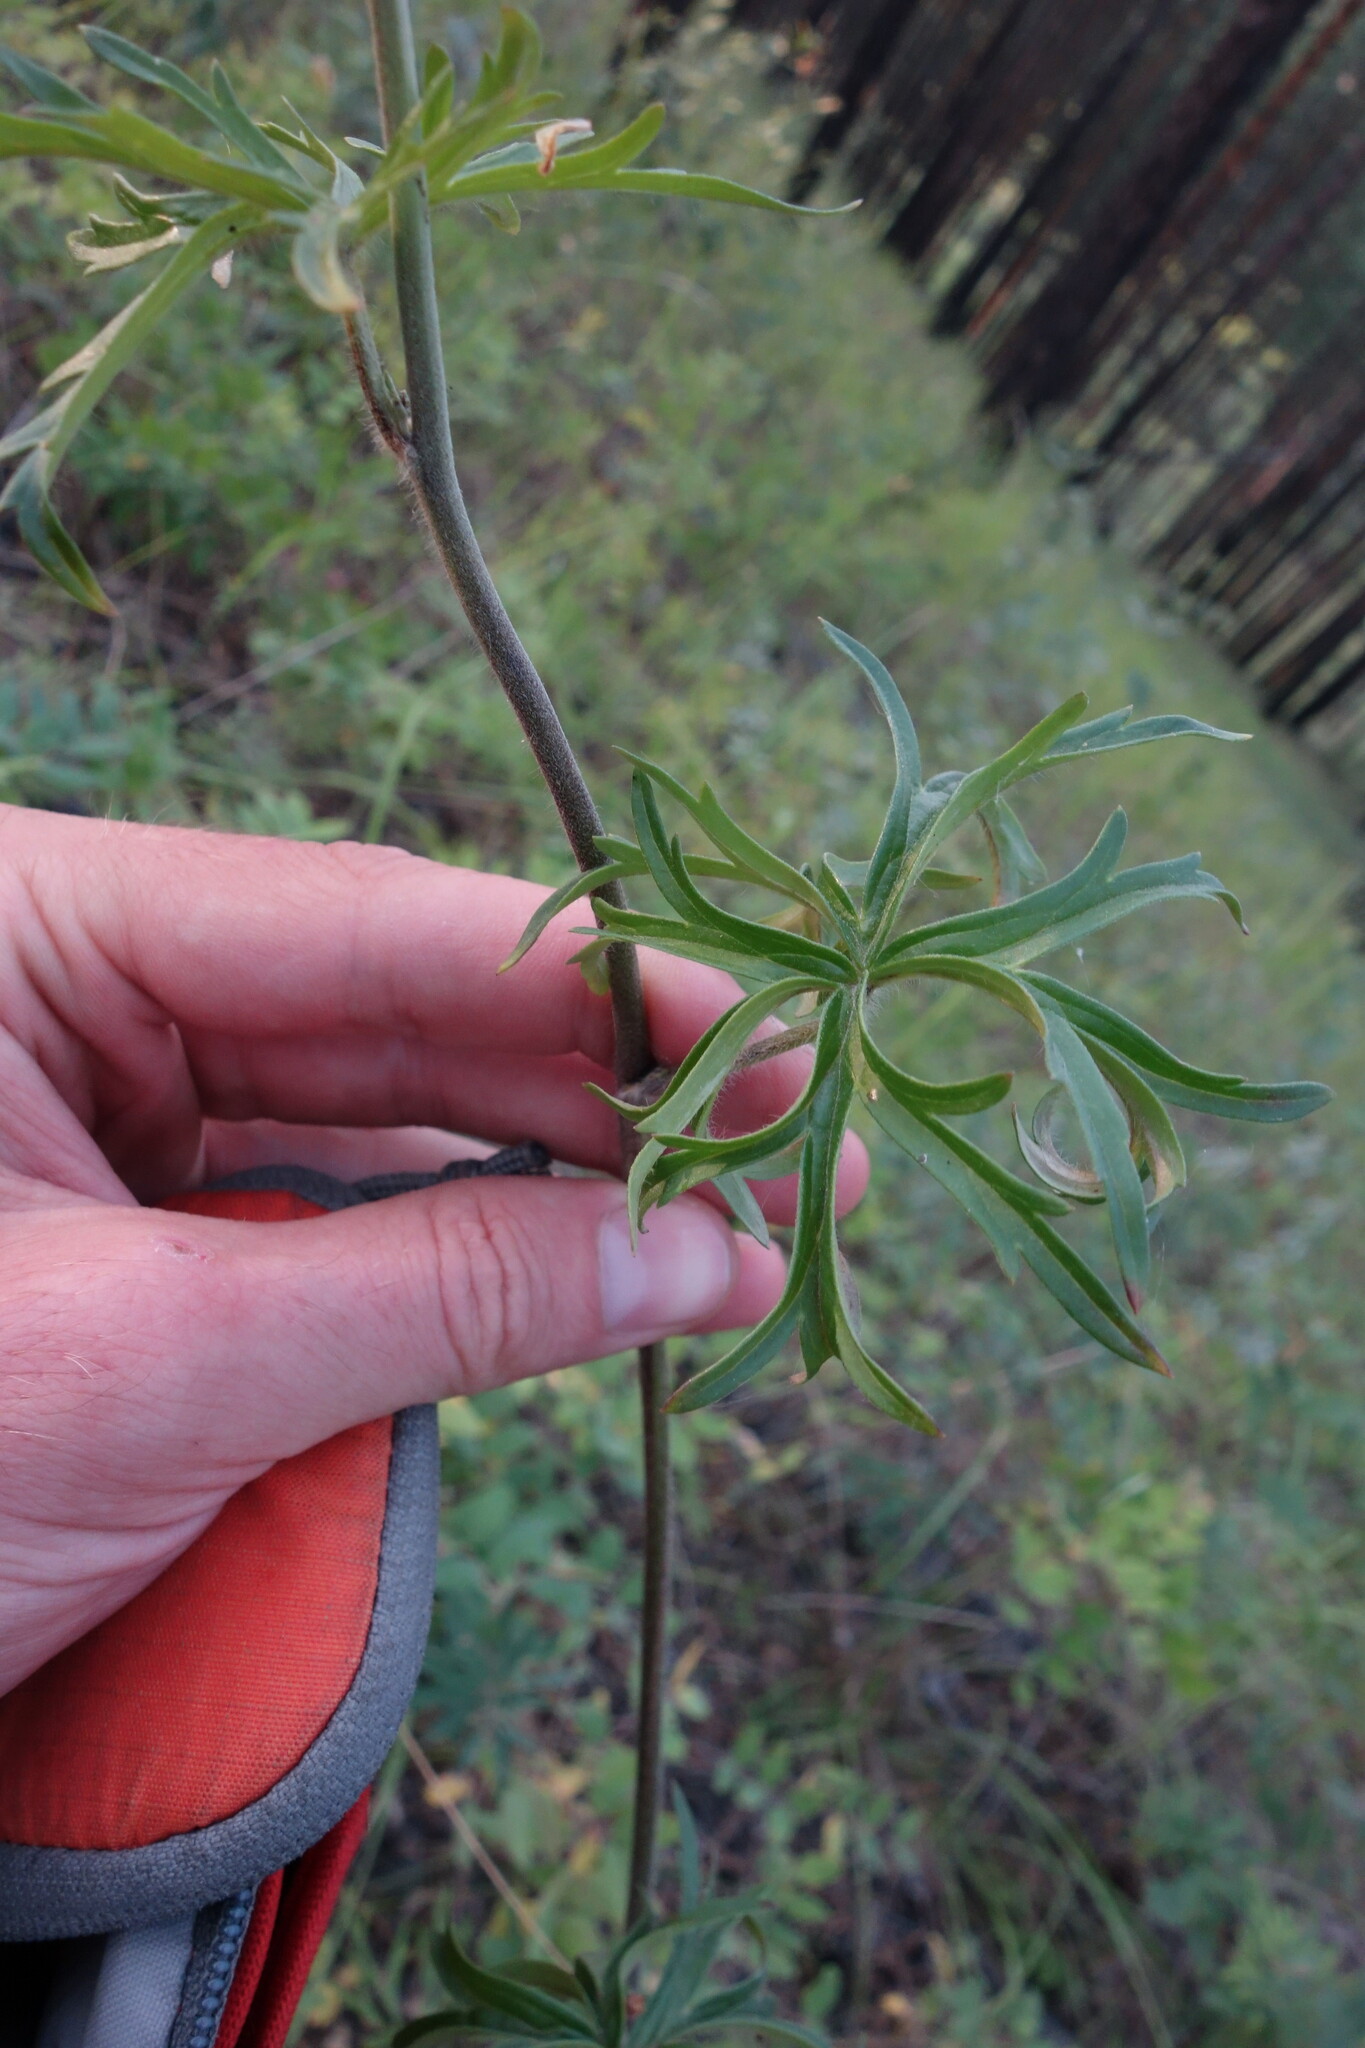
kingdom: Plantae
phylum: Tracheophyta
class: Magnoliopsida
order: Ranunculales
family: Ranunculaceae
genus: Aconitum
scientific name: Aconitum barbatum
